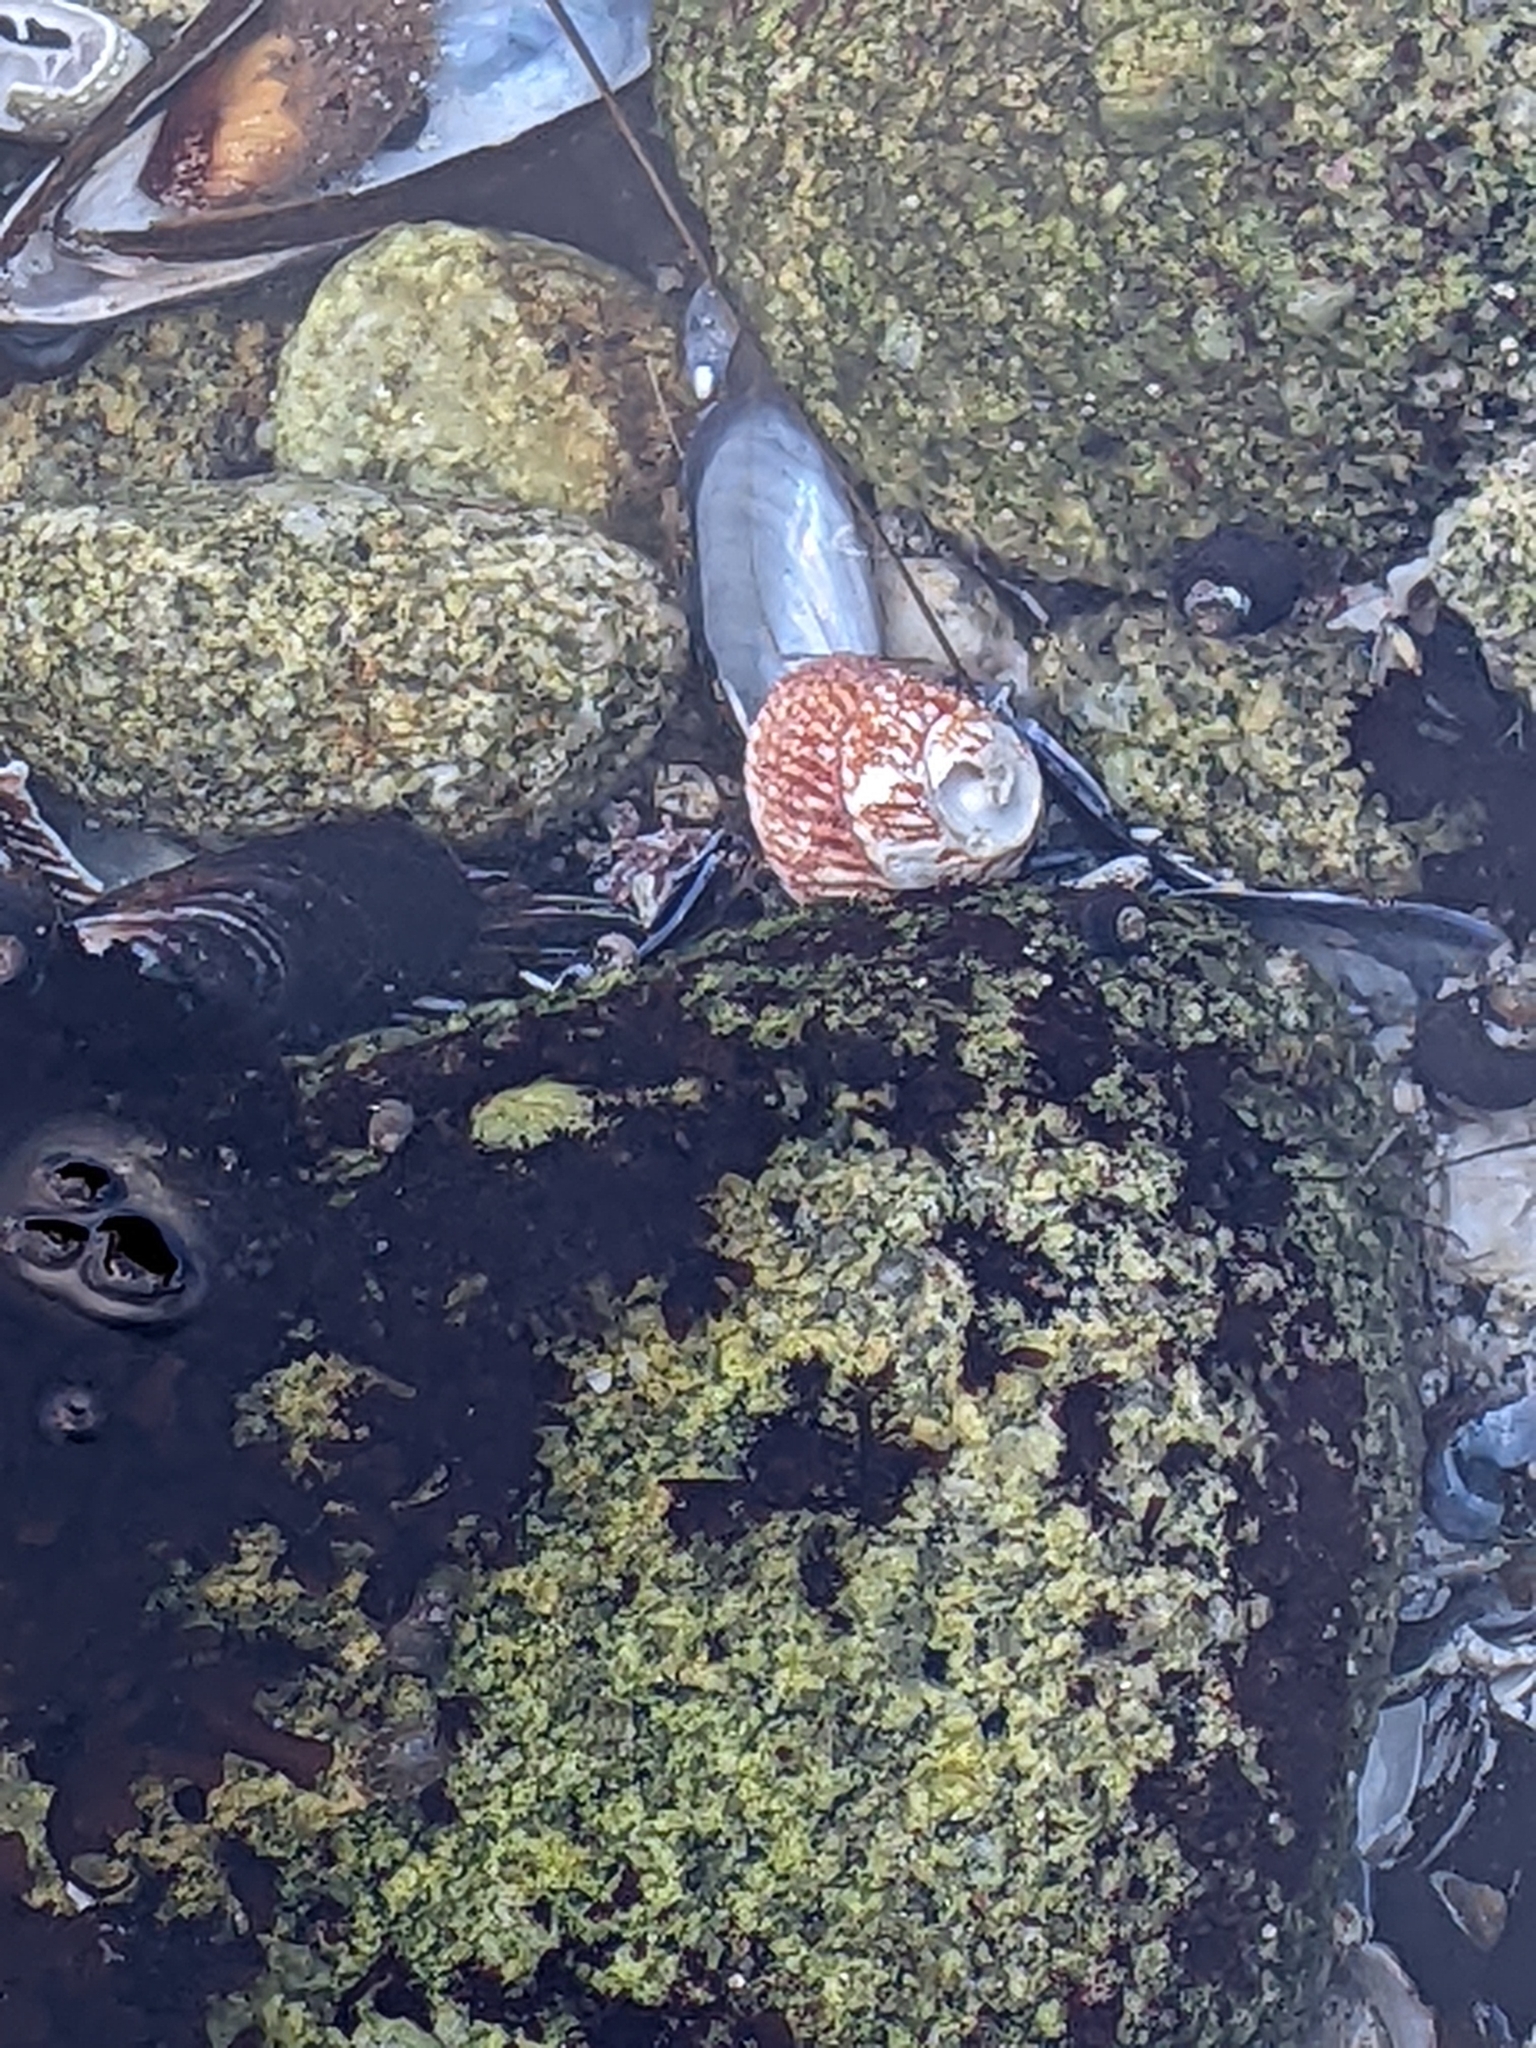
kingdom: Animalia
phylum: Mollusca
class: Gastropoda
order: Trochida
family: Turbinidae
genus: Pomaulax
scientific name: Pomaulax gibberosus
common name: Red turban
